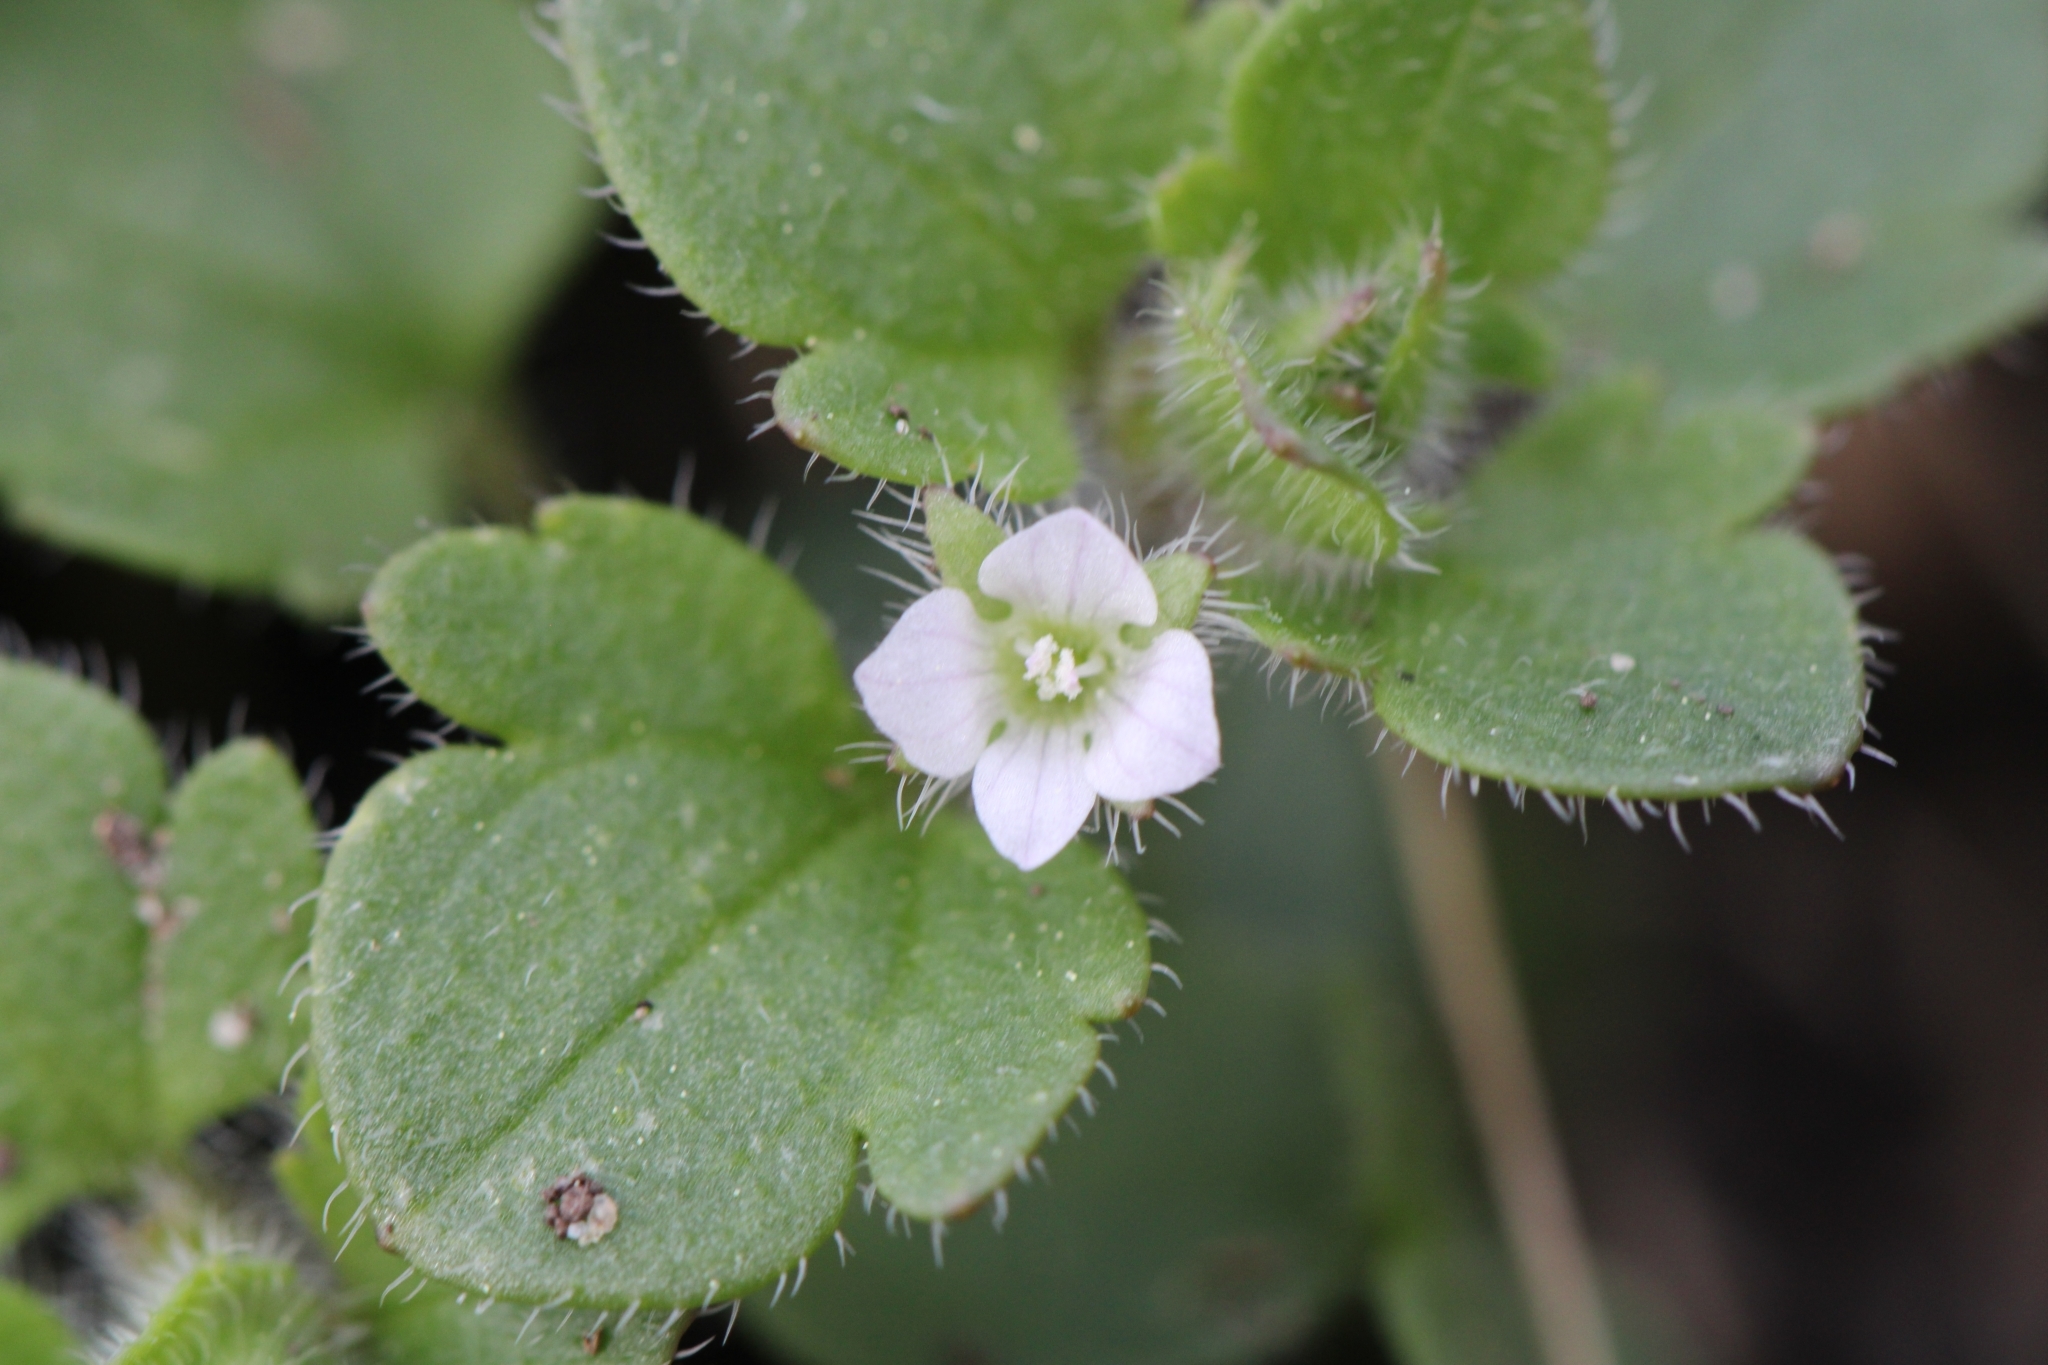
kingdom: Plantae
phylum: Tracheophyta
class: Magnoliopsida
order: Lamiales
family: Plantaginaceae
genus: Veronica
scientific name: Veronica sublobata
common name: False ivy-leaved speedwell
